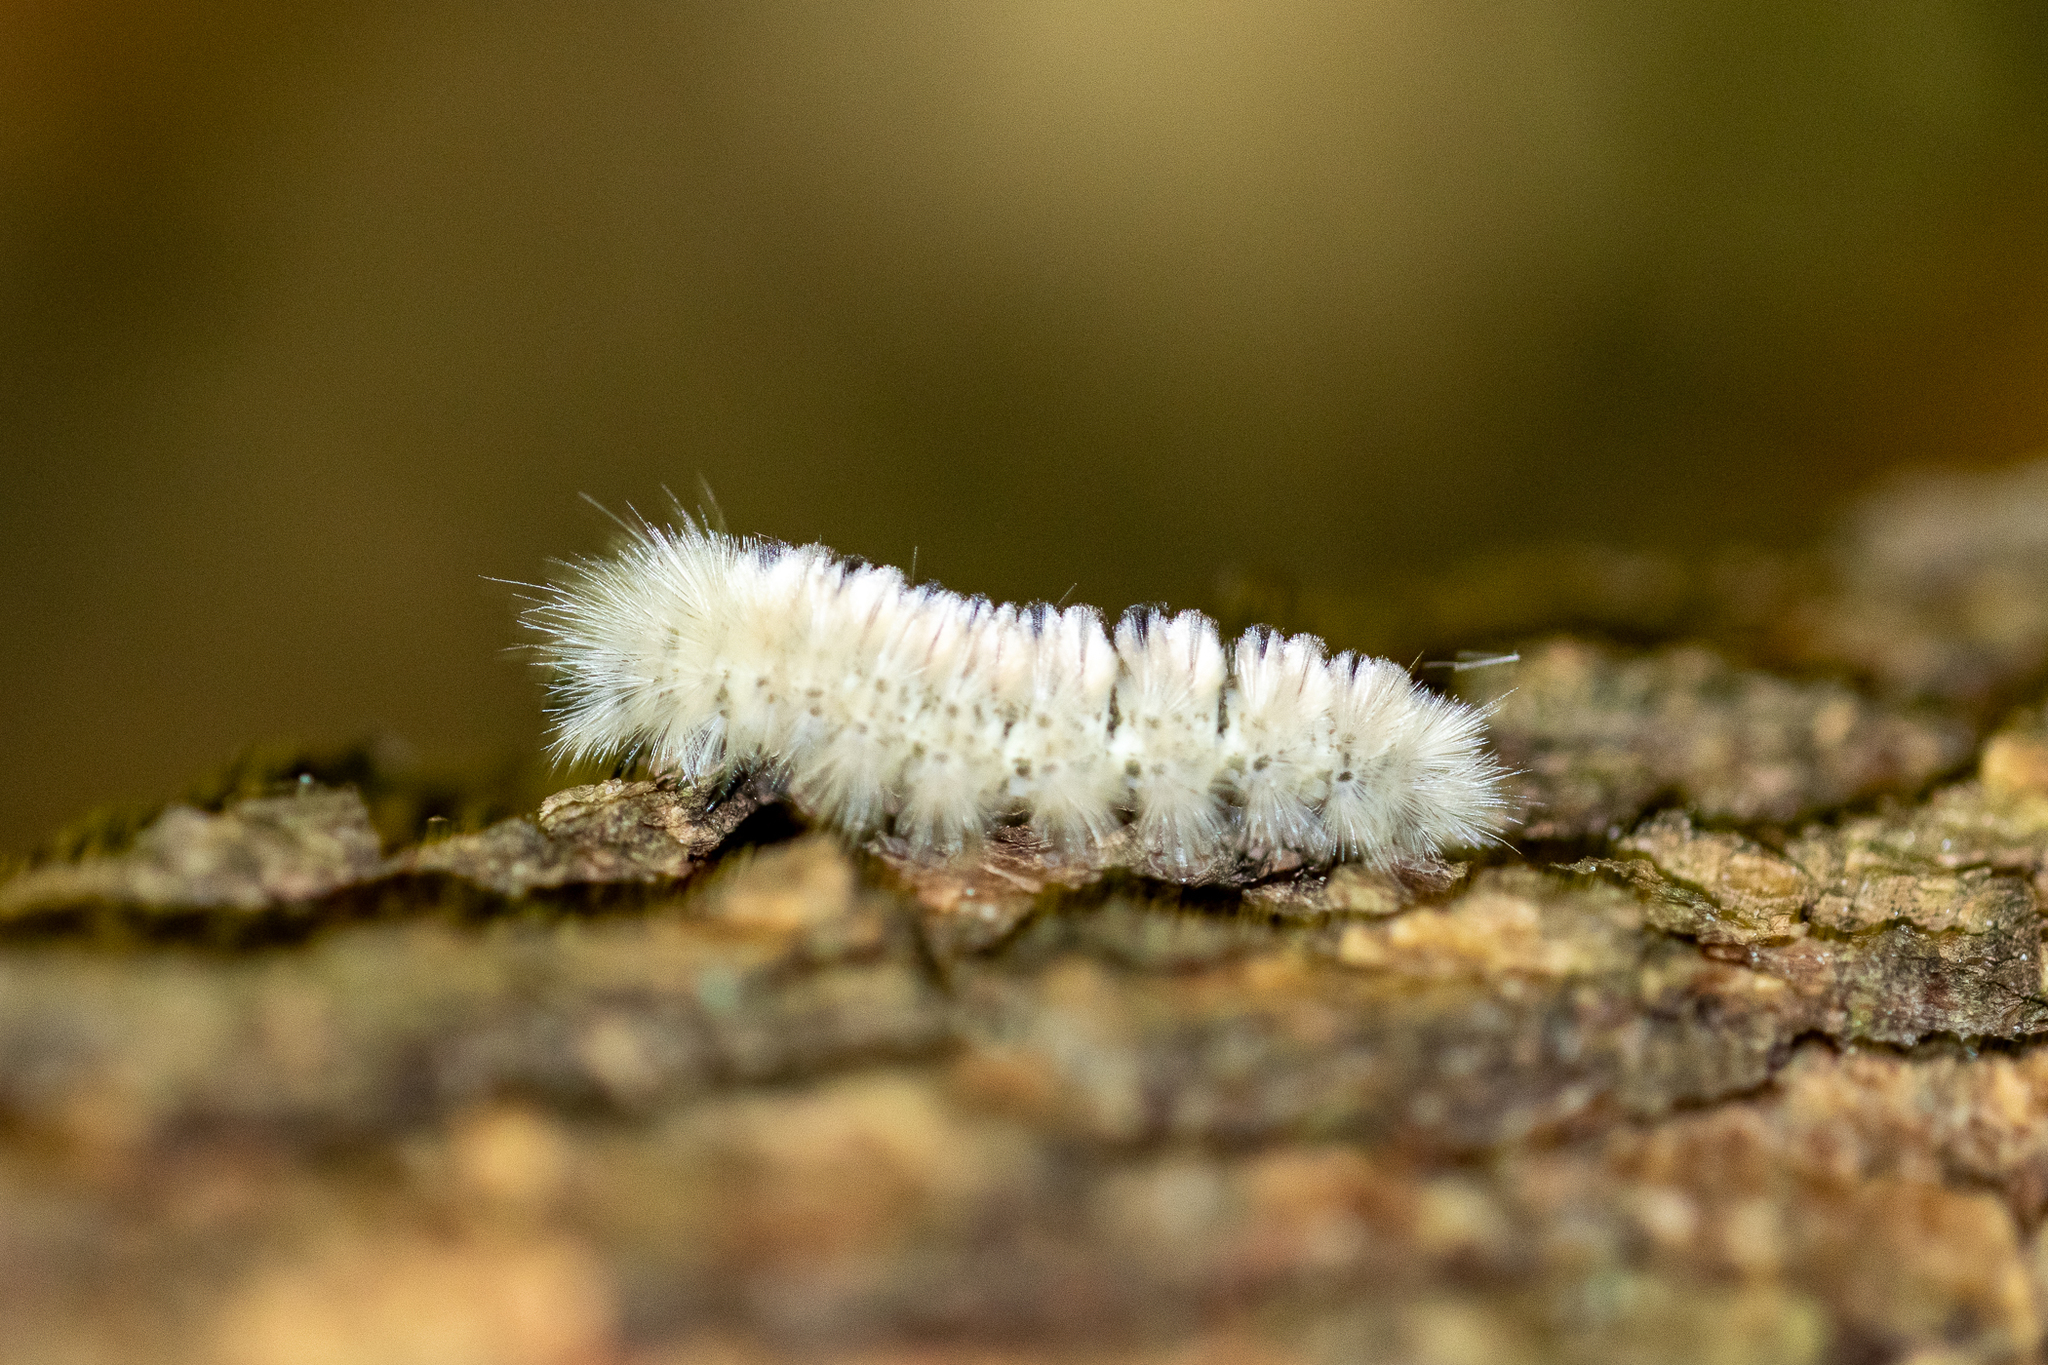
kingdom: Animalia
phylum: Arthropoda
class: Insecta
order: Lepidoptera
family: Erebidae
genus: Lophocampa
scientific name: Lophocampa caryae
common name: Hickory tussock moth
